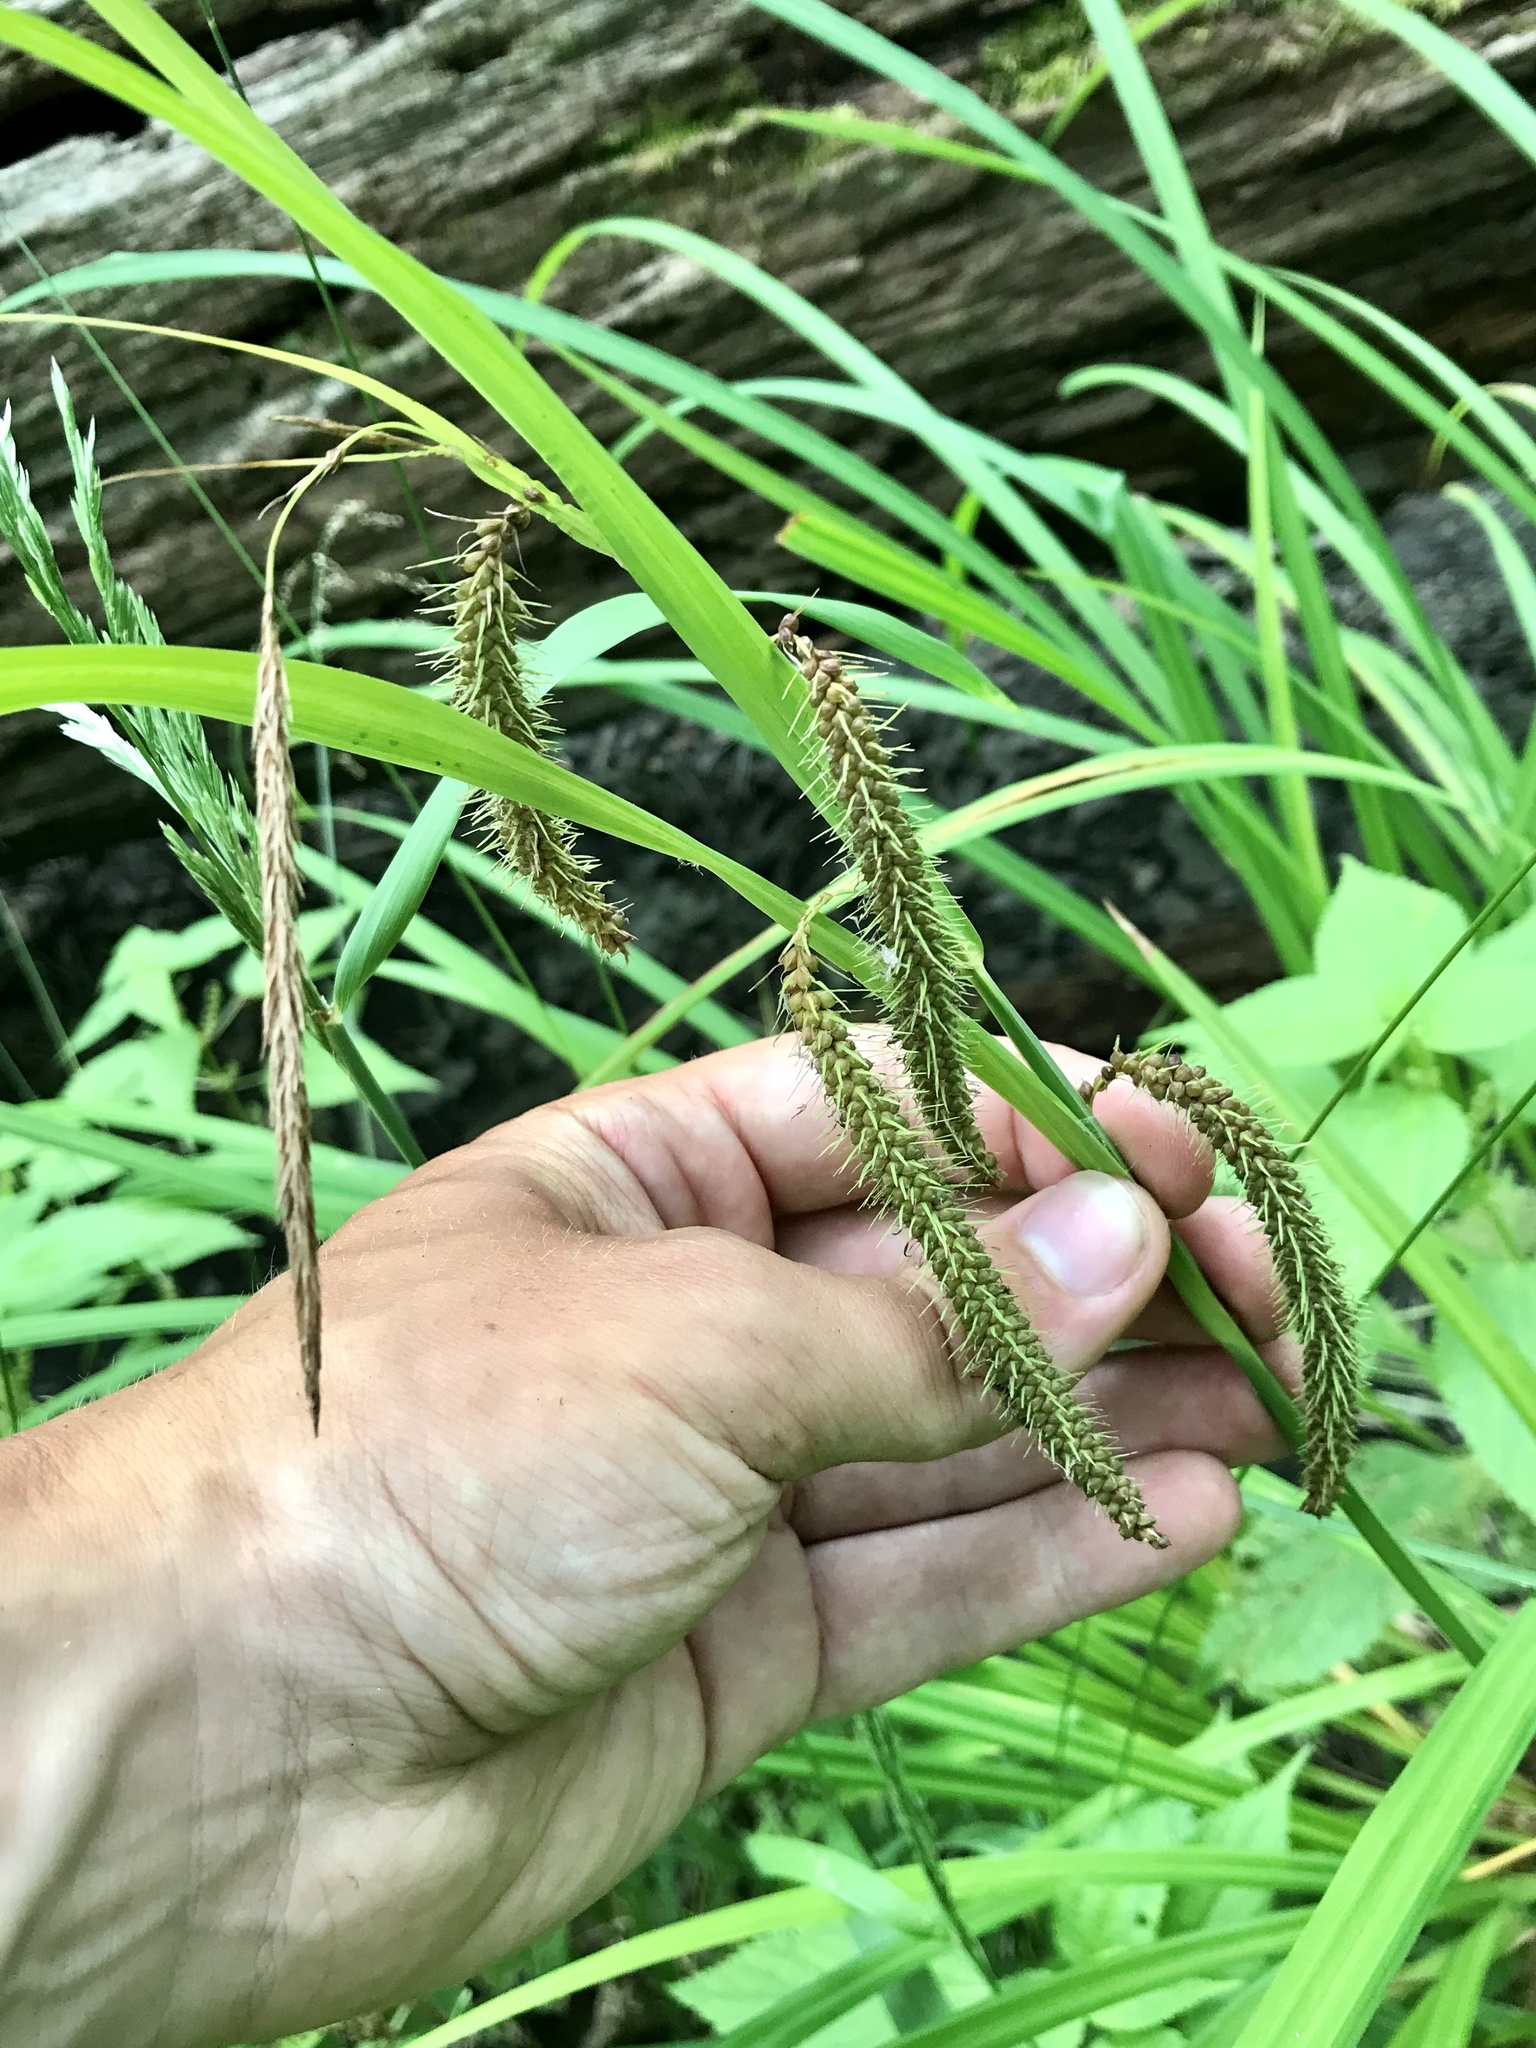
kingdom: Plantae
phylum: Tracheophyta
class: Liliopsida
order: Poales
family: Cyperaceae
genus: Carex
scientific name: Carex crinita
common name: Fringed sedge
